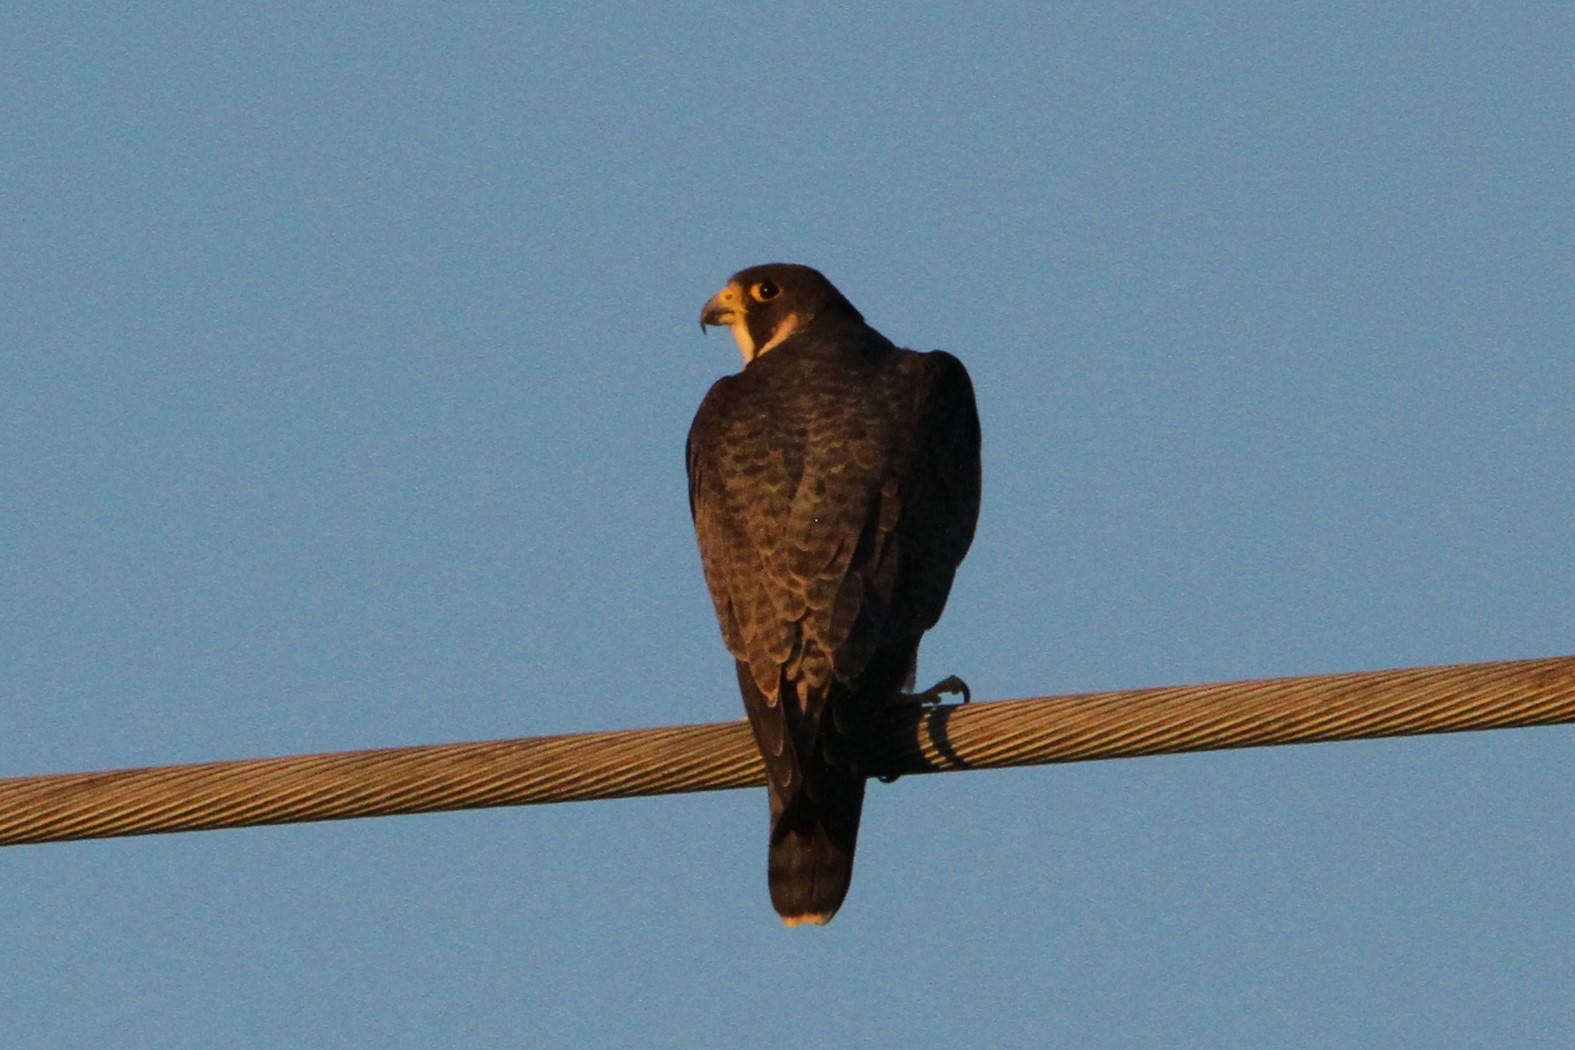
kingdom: Animalia
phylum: Chordata
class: Aves
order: Falconiformes
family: Falconidae
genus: Falco
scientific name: Falco peregrinus
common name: Peregrine falcon
